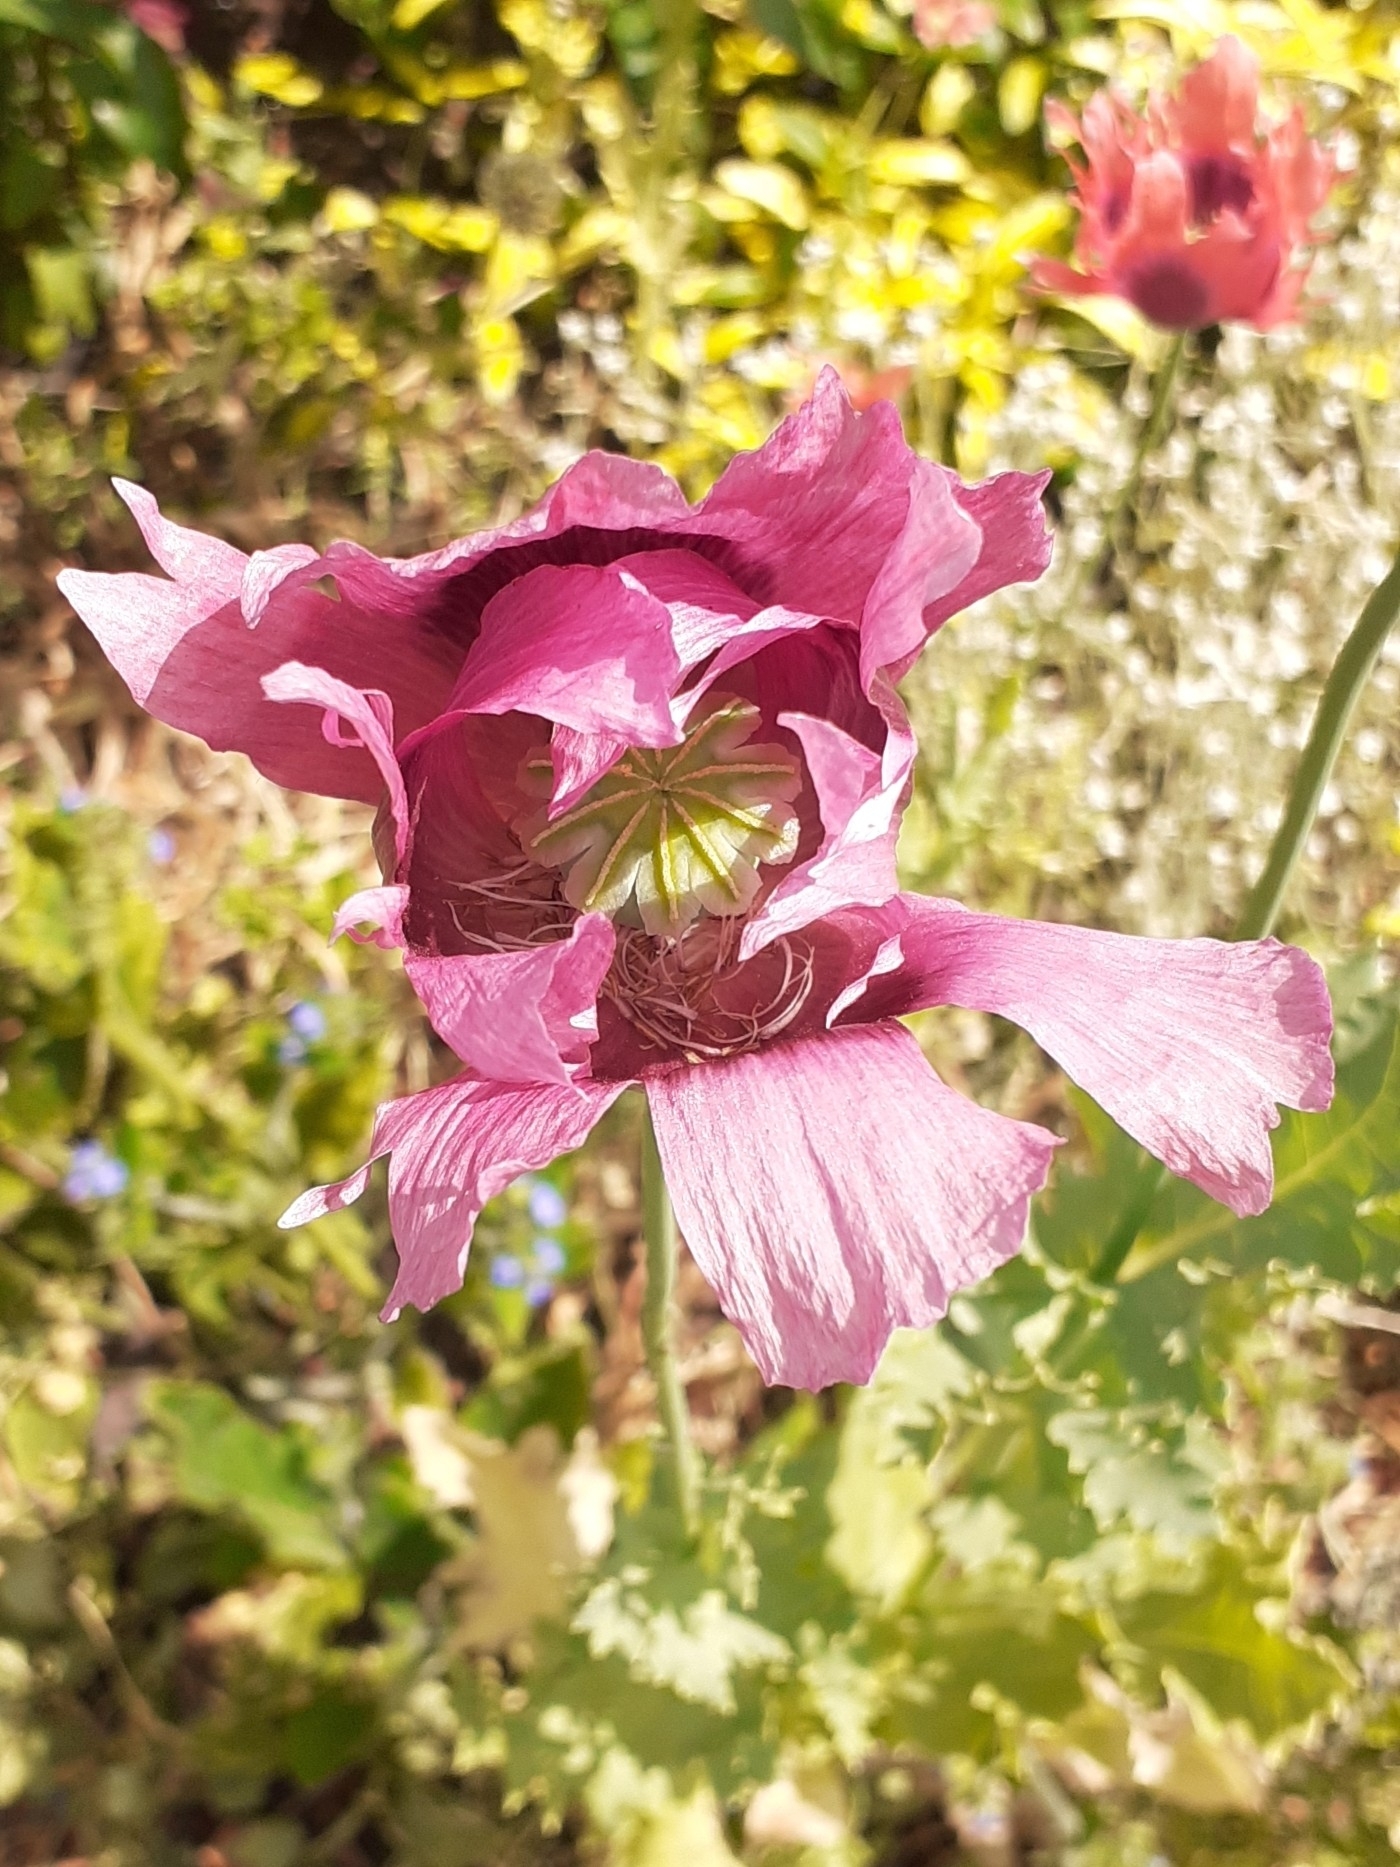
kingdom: Plantae
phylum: Tracheophyta
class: Magnoliopsida
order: Ranunculales
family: Papaveraceae
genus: Papaver
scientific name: Papaver somniferum
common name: Opium poppy
